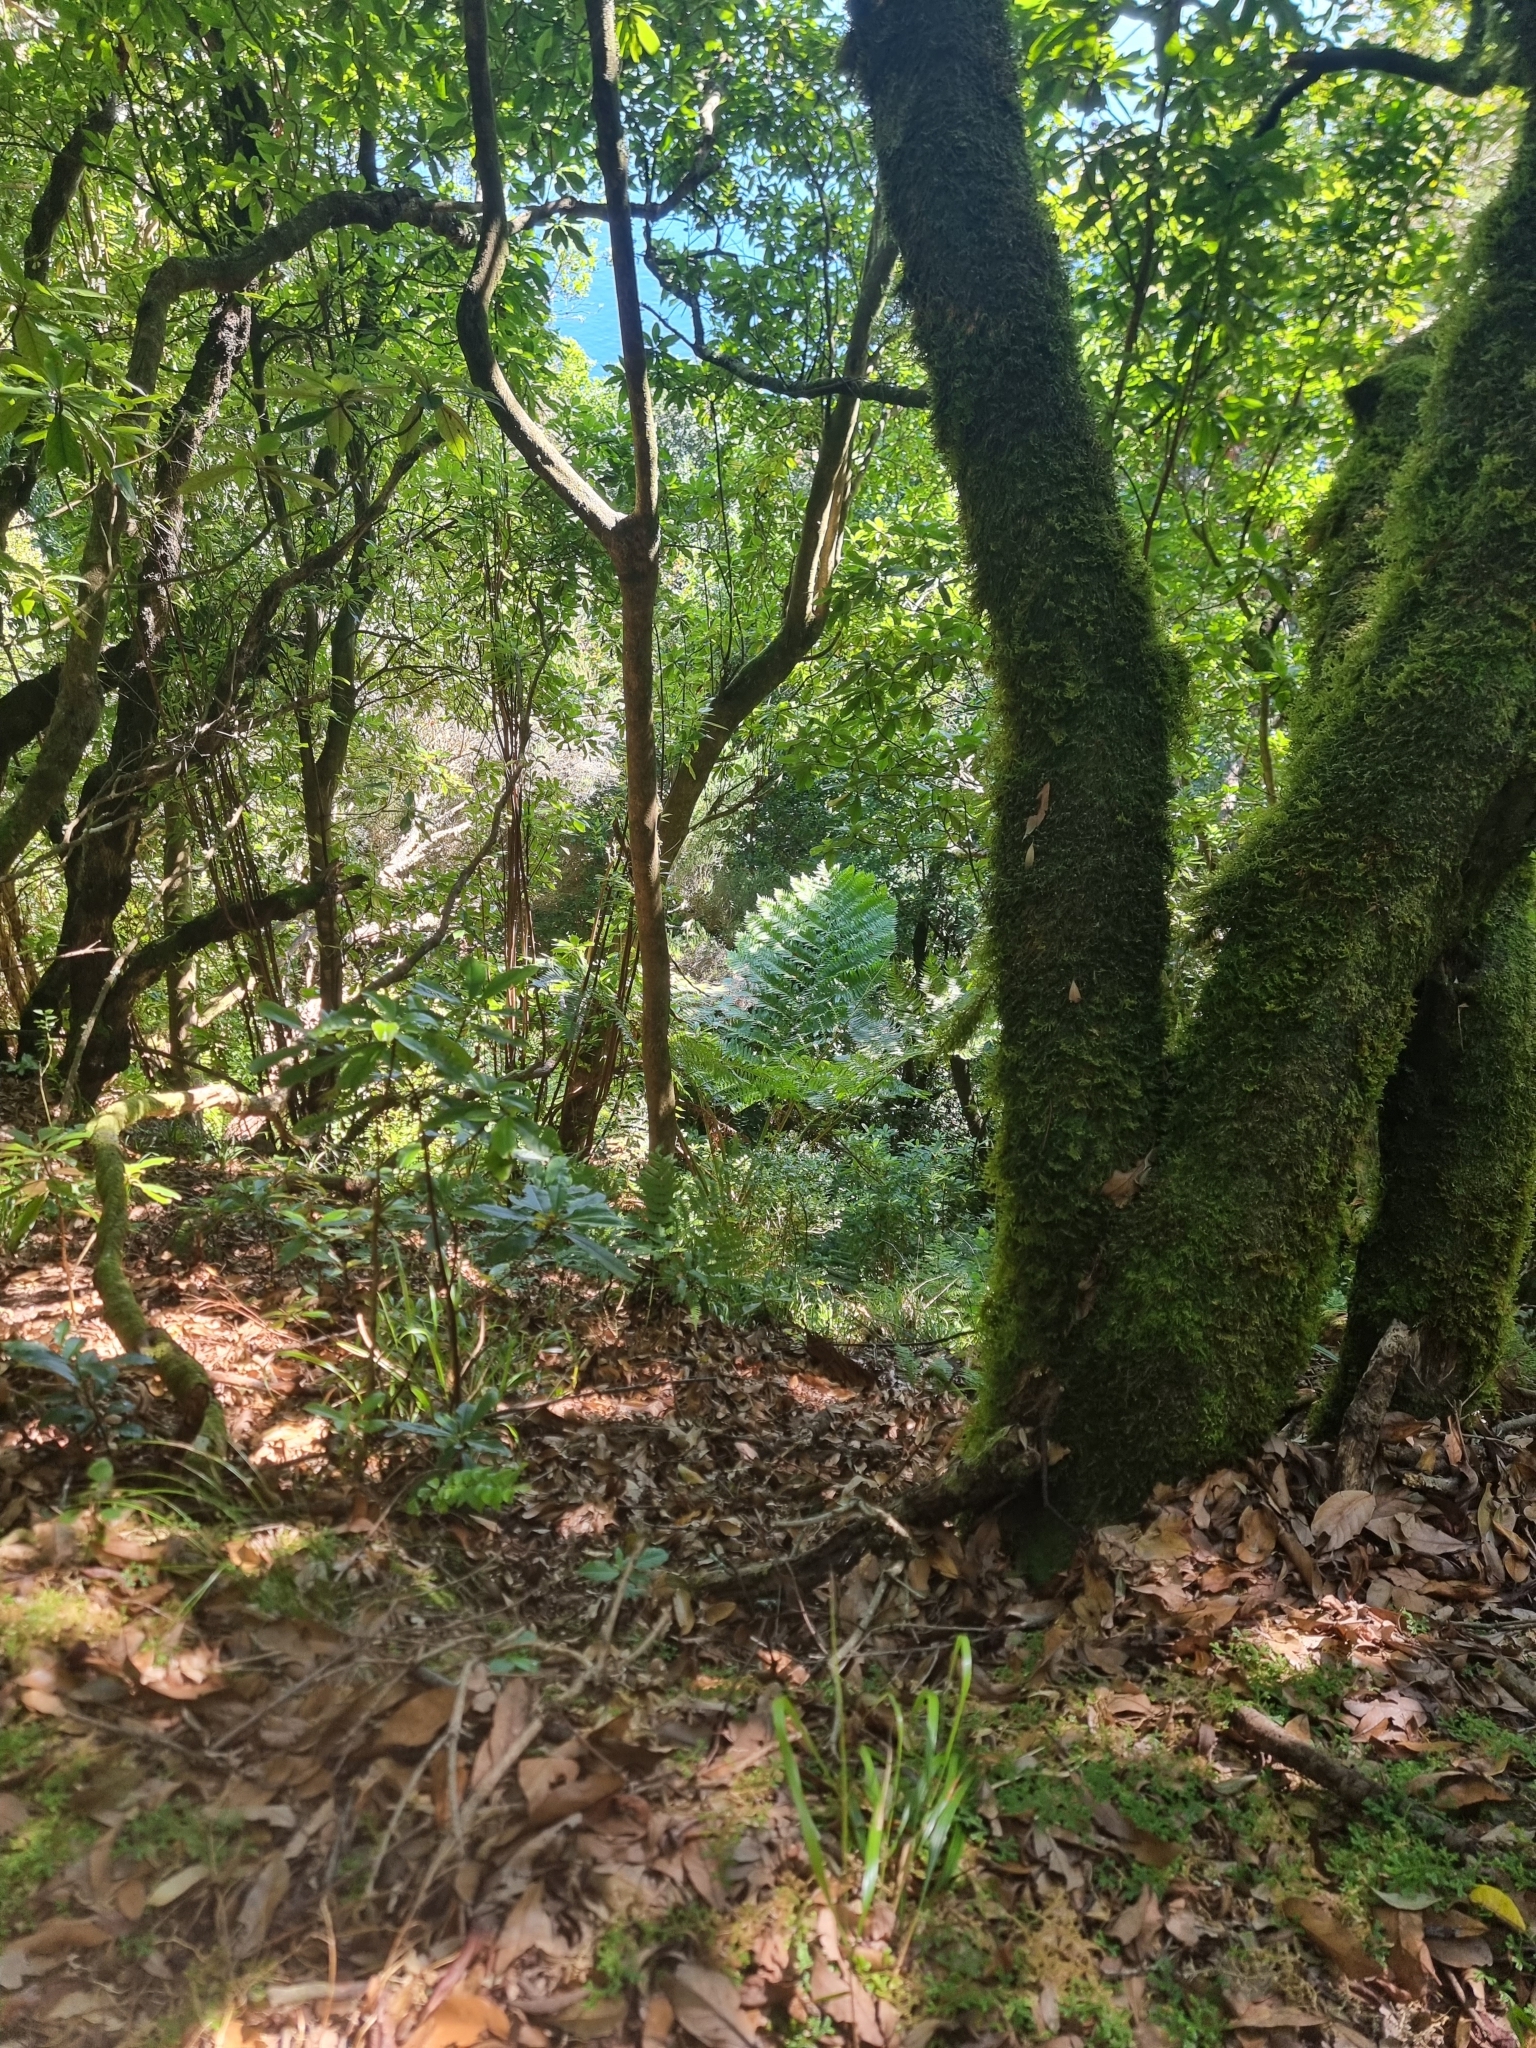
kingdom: Plantae
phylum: Tracheophyta
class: Polypodiopsida
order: Cyatheales
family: Cyatheaceae
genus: Sphaeropteris
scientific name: Sphaeropteris cooperi
